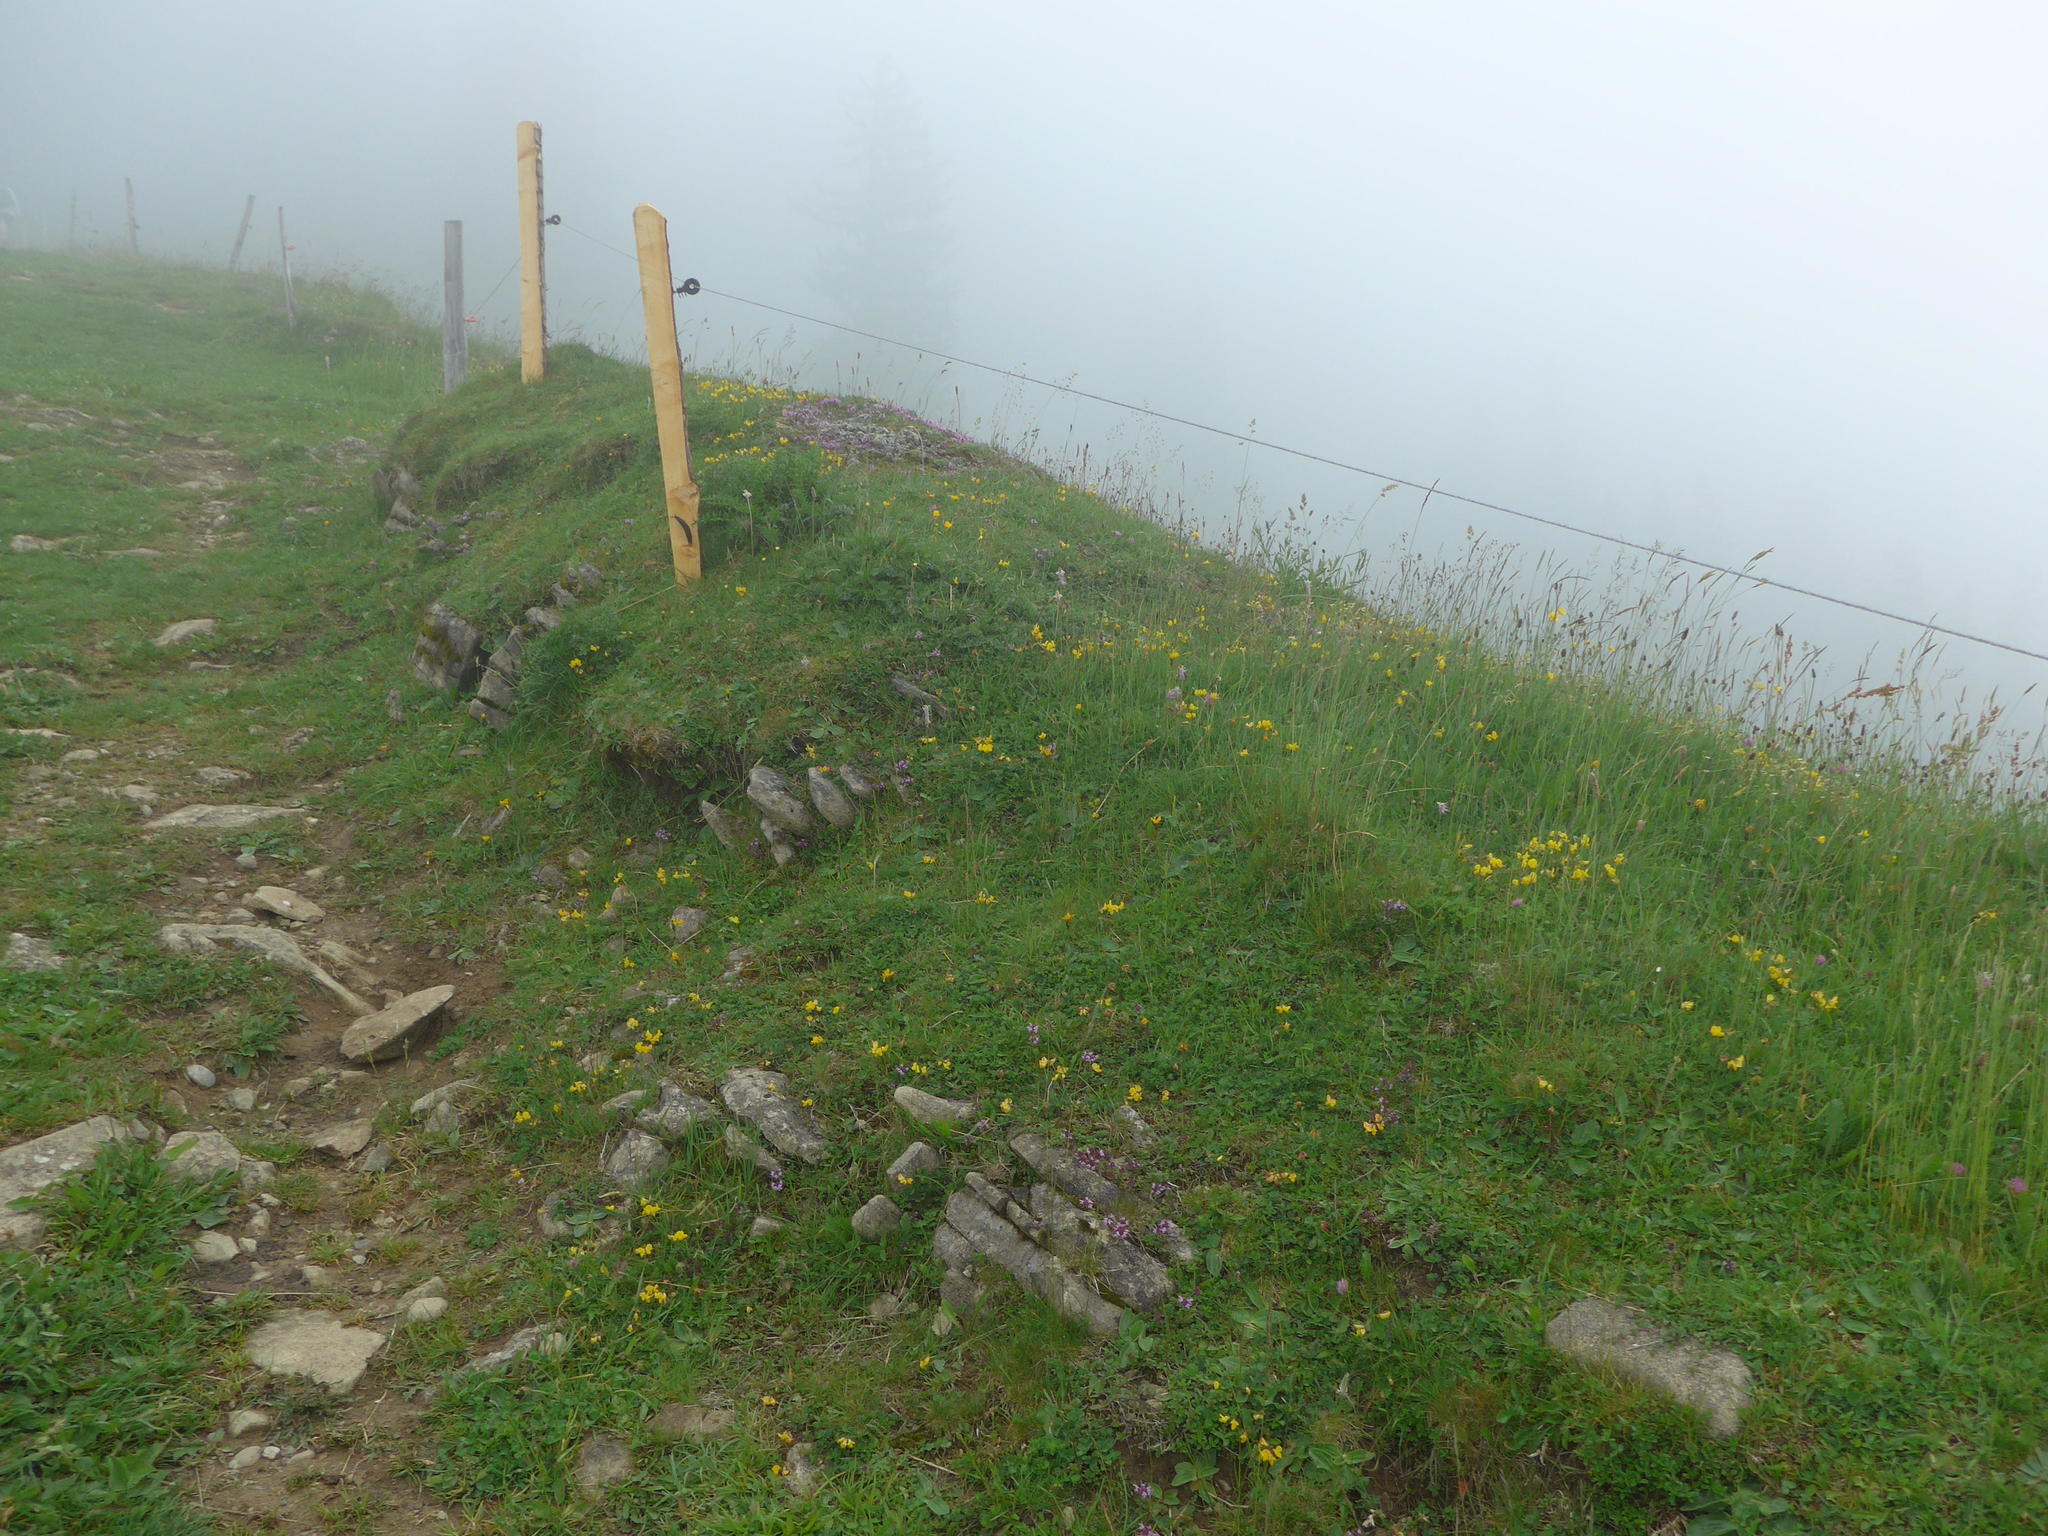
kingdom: Plantae
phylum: Tracheophyta
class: Magnoliopsida
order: Fabales
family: Fabaceae
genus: Lotus
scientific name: Lotus corniculatus
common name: Common bird's-foot-trefoil
